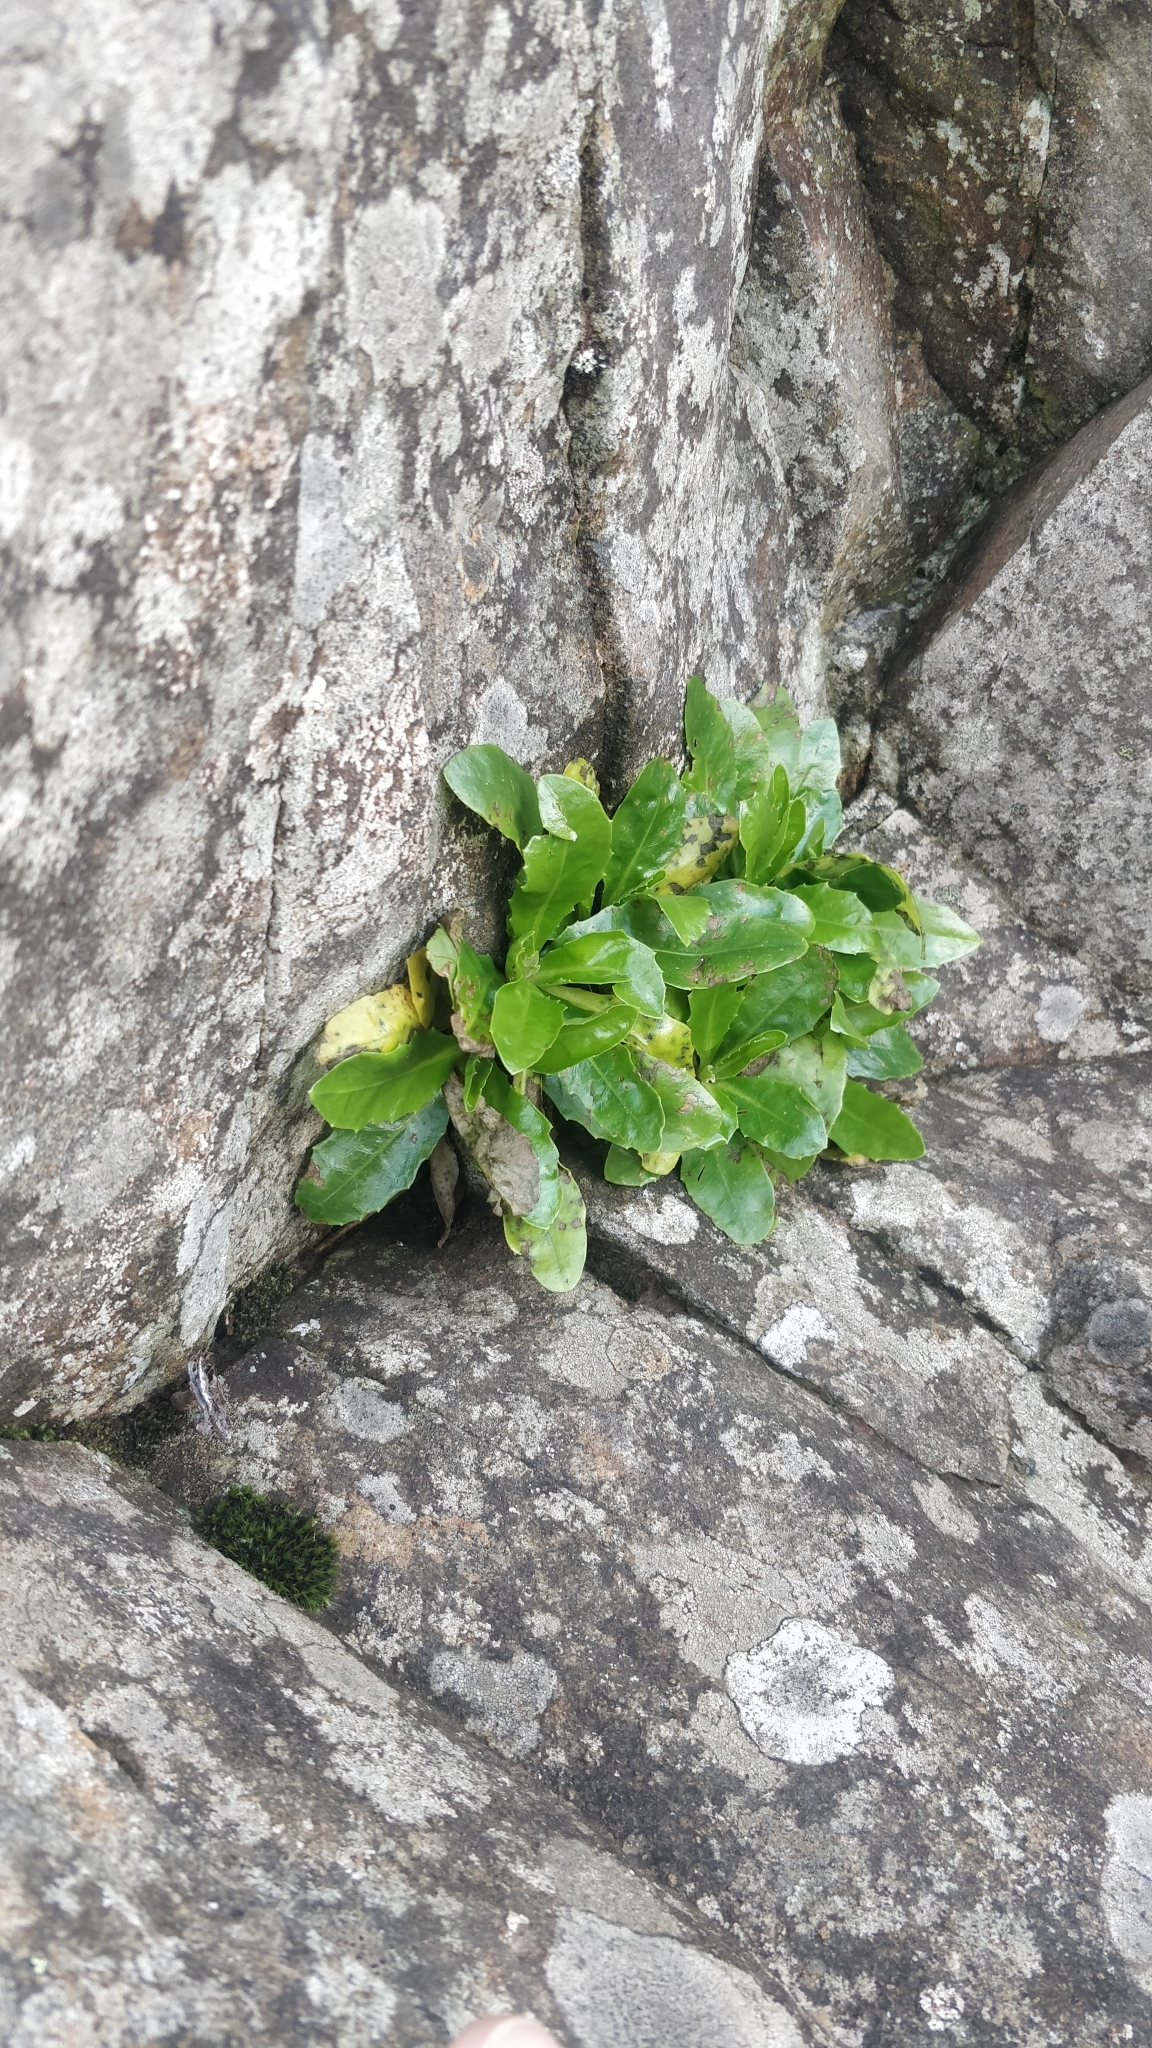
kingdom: Plantae
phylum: Tracheophyta
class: Magnoliopsida
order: Asterales
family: Asteraceae
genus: Tolpis
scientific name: Tolpis macrorhiza
